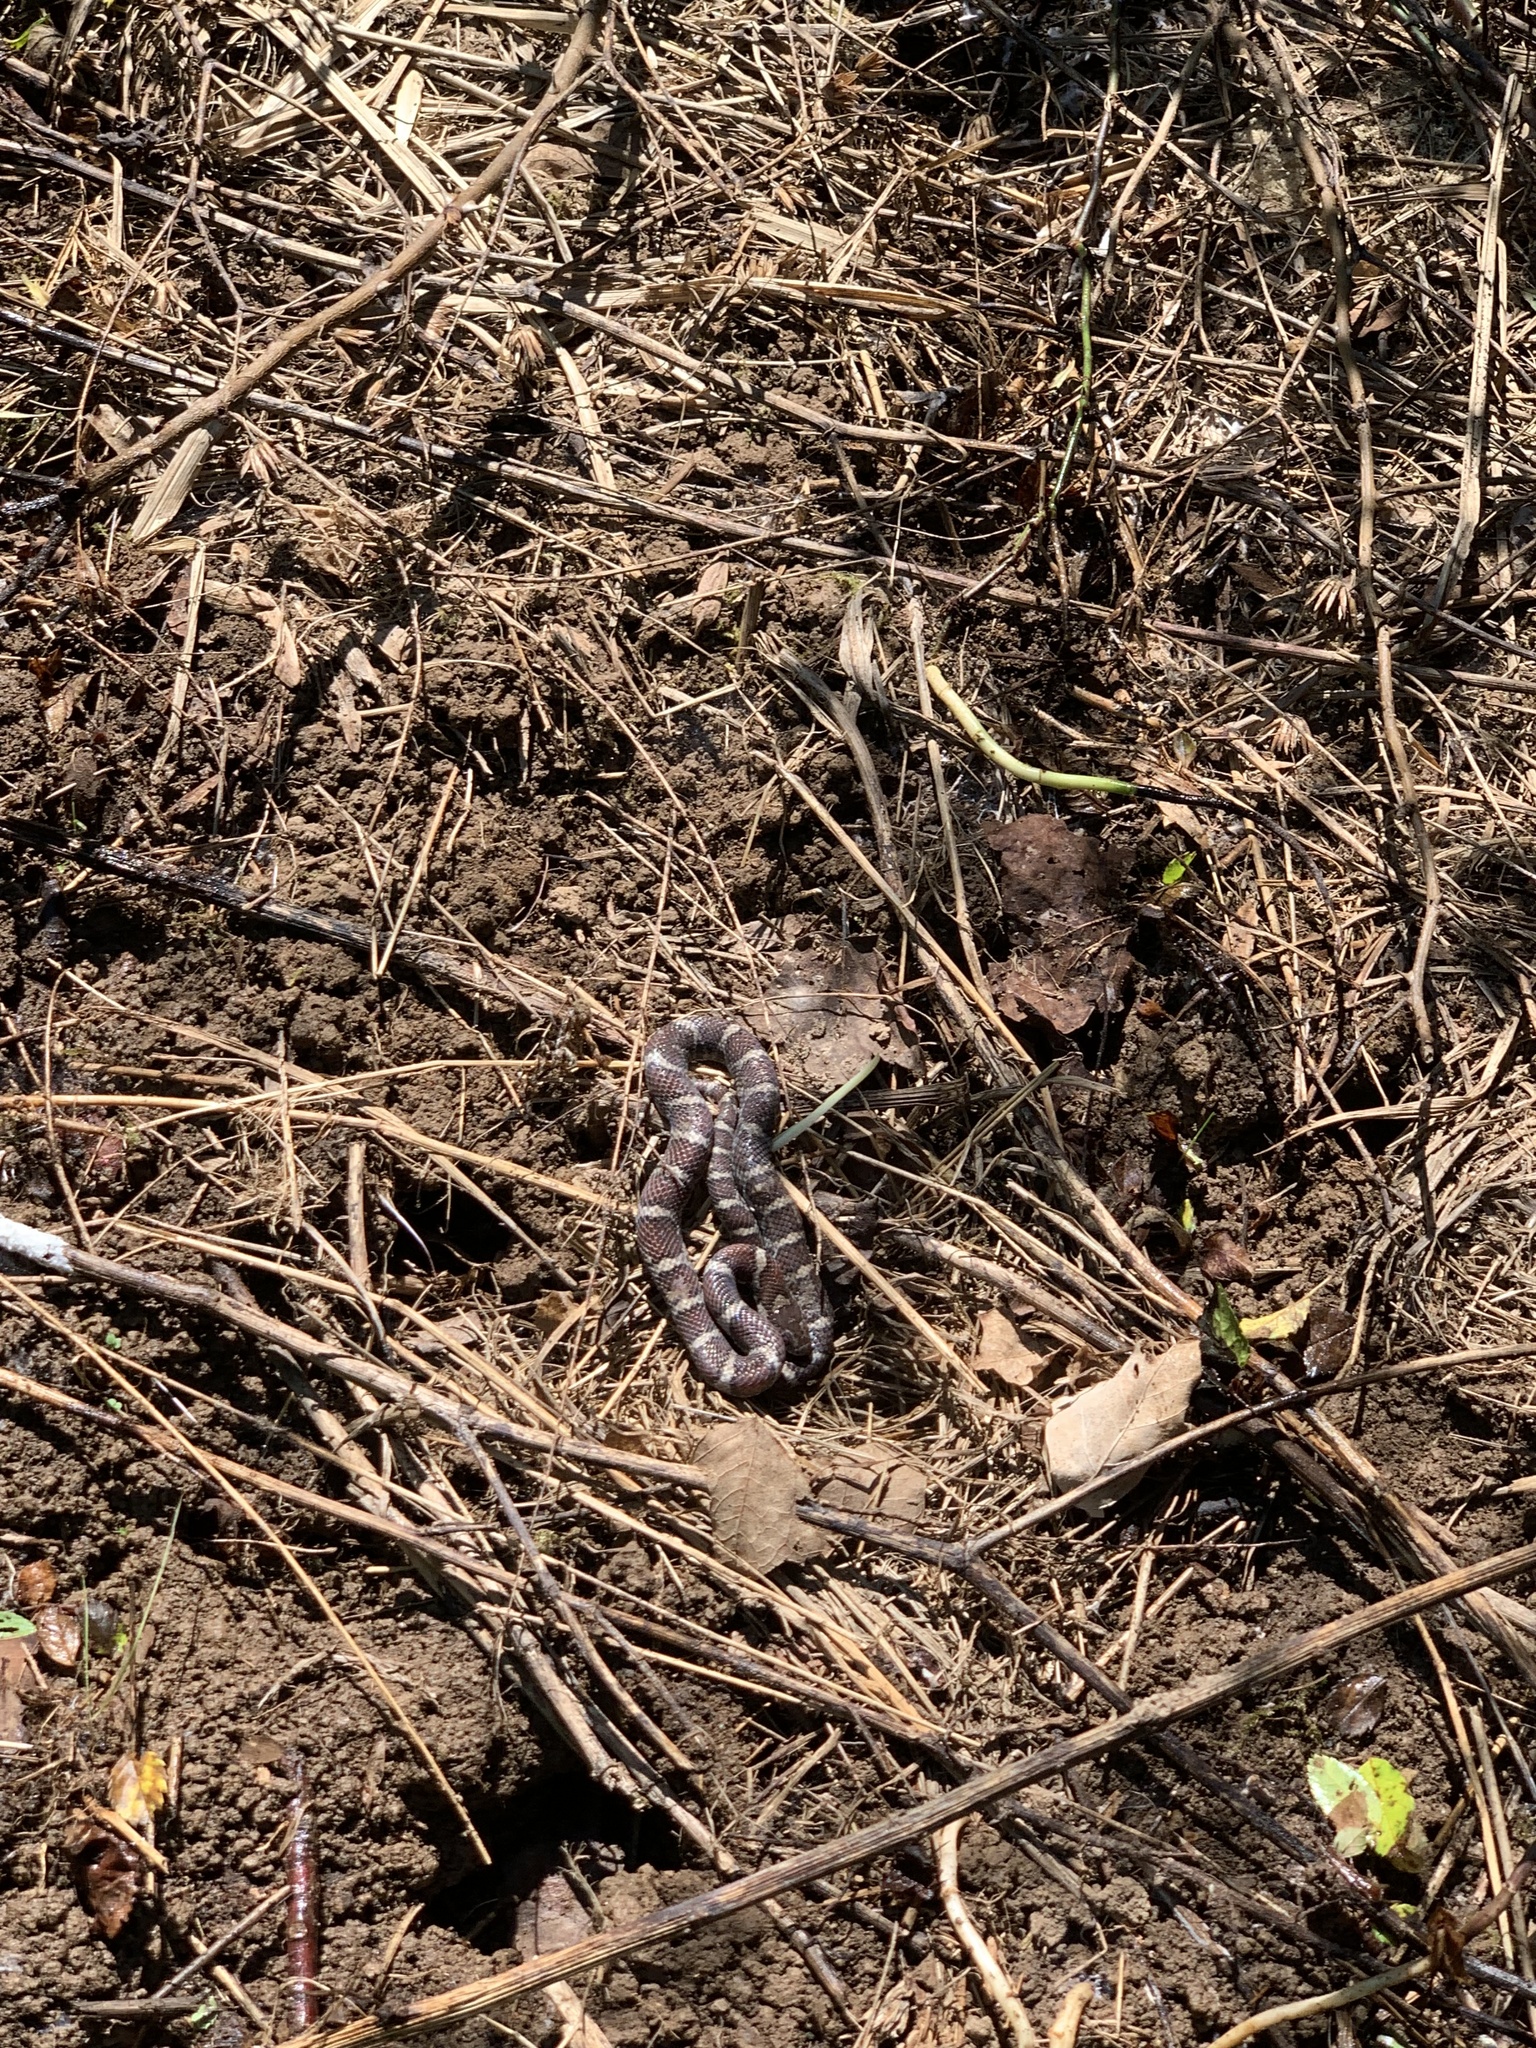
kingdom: Animalia
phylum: Chordata
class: Squamata
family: Colubridae
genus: Lampropeltis
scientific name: Lampropeltis triangulum
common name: Eastern milksnake
